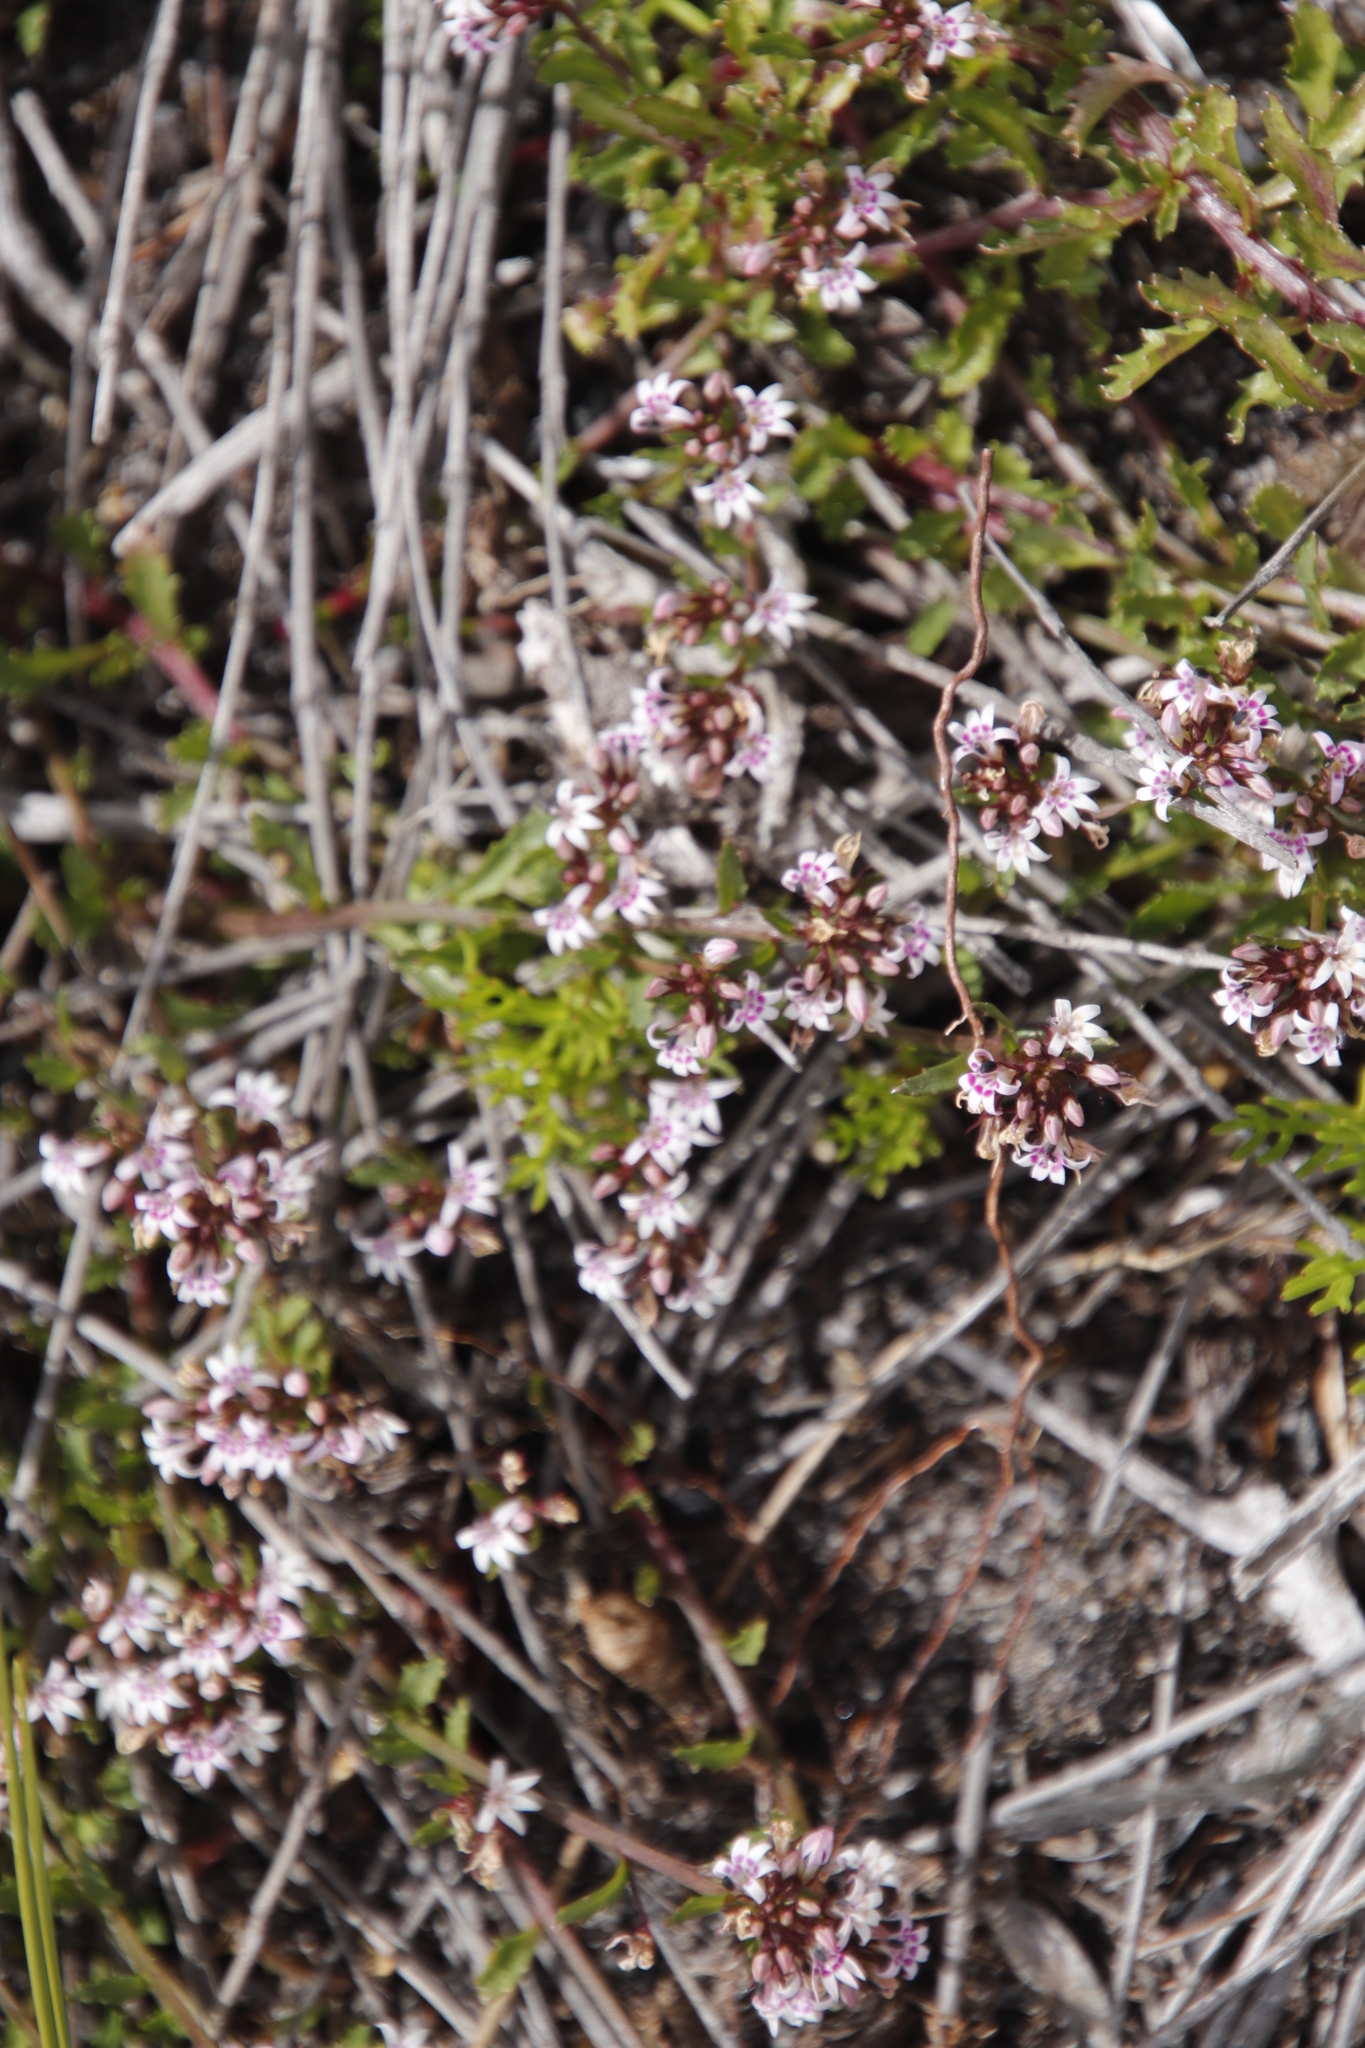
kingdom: Plantae
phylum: Tracheophyta
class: Magnoliopsida
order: Asterales
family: Campanulaceae
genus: Lobelia
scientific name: Lobelia jasionoides
